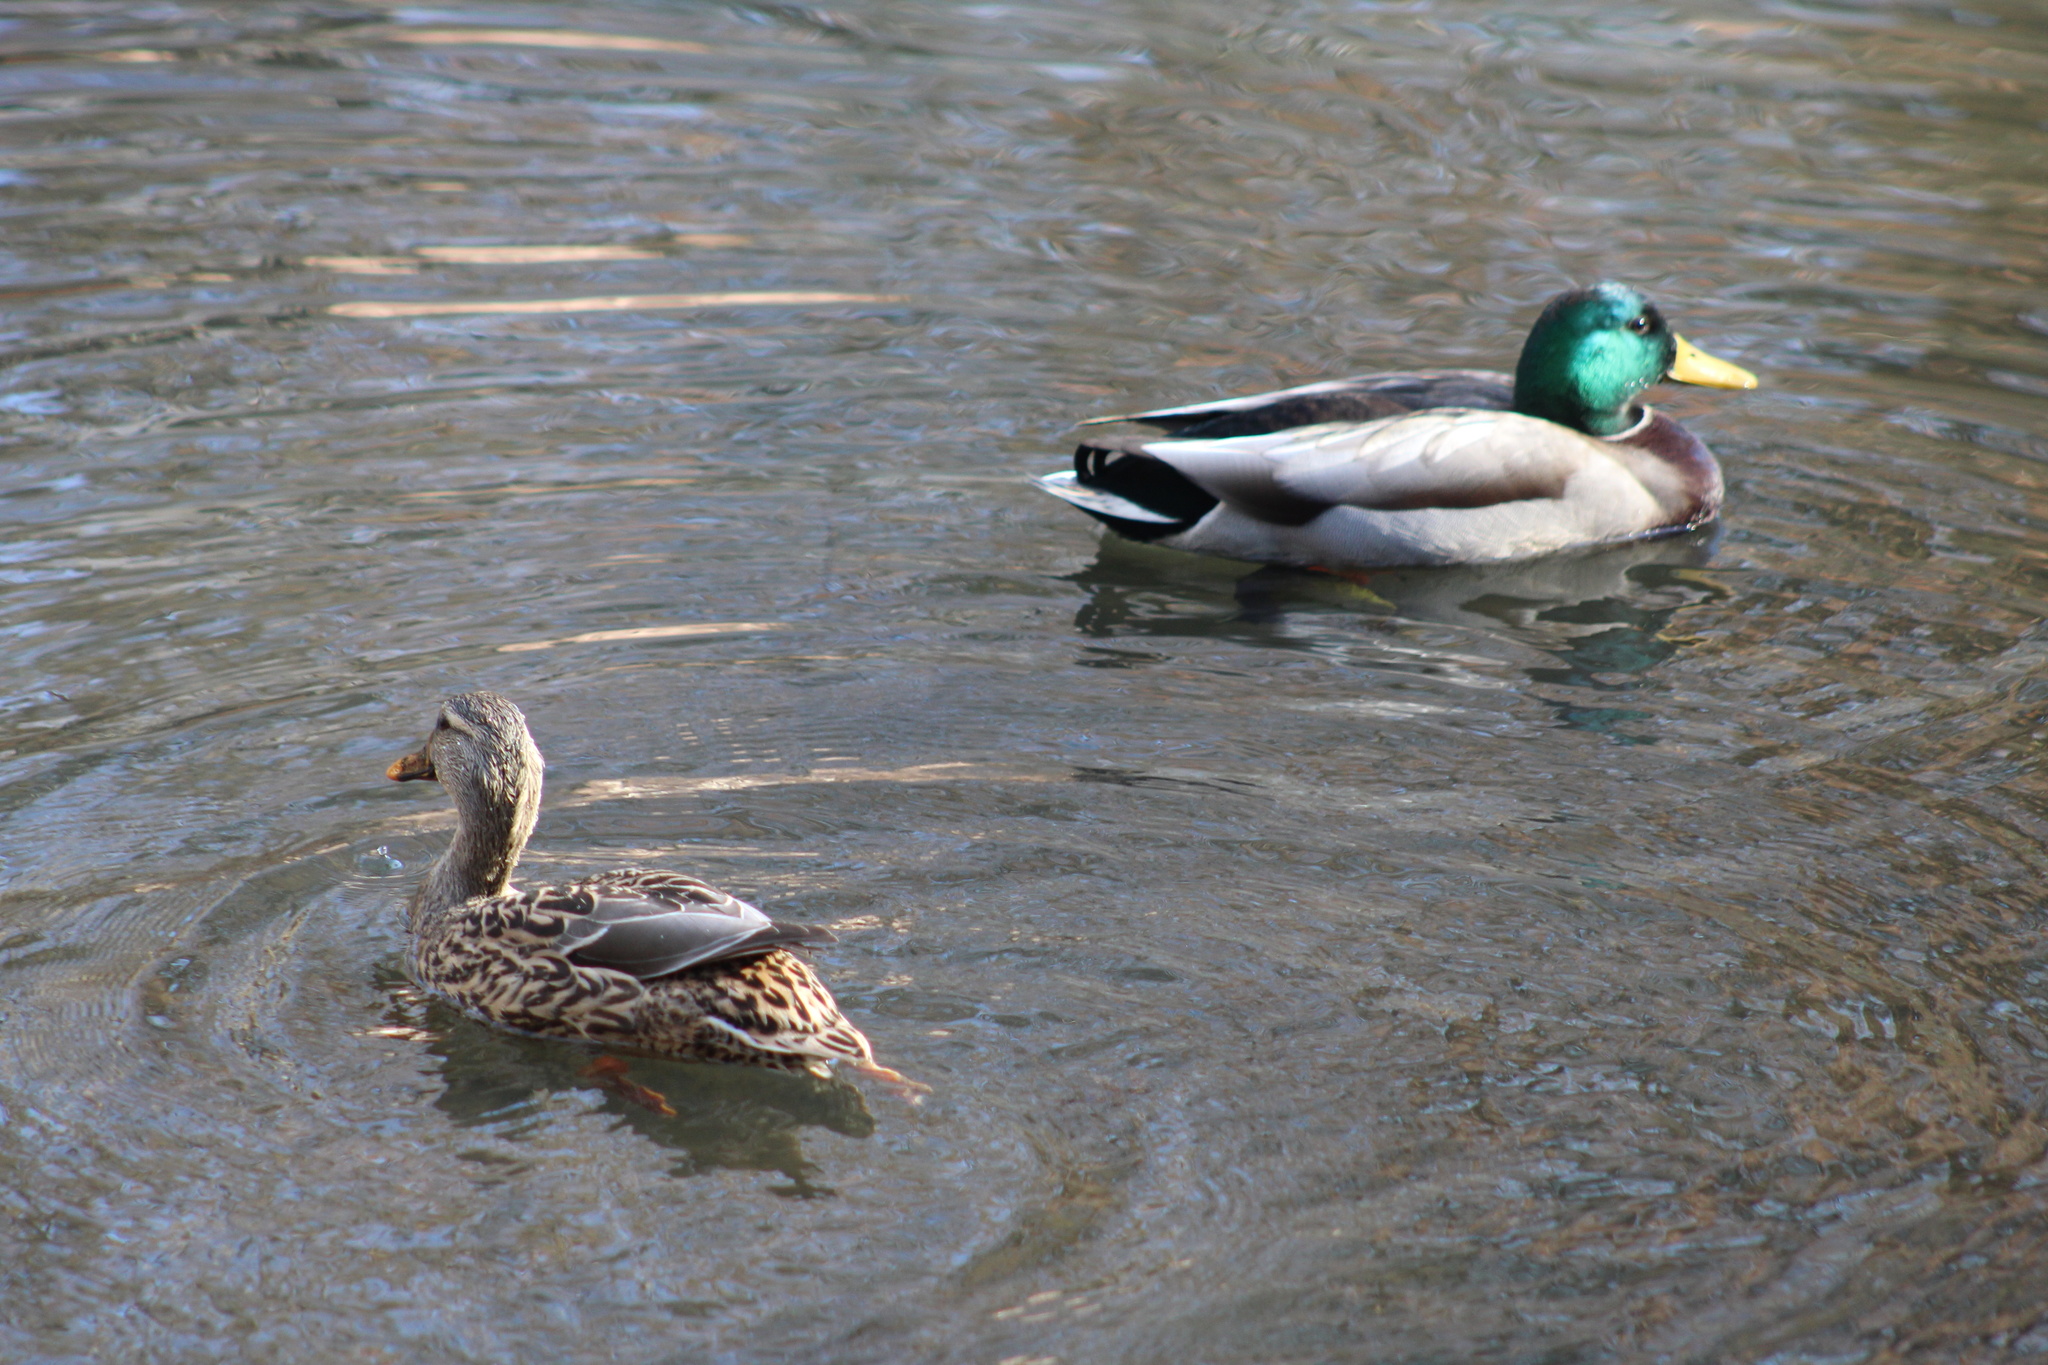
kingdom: Animalia
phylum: Chordata
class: Aves
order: Anseriformes
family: Anatidae
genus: Anas
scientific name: Anas platyrhynchos
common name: Mallard
